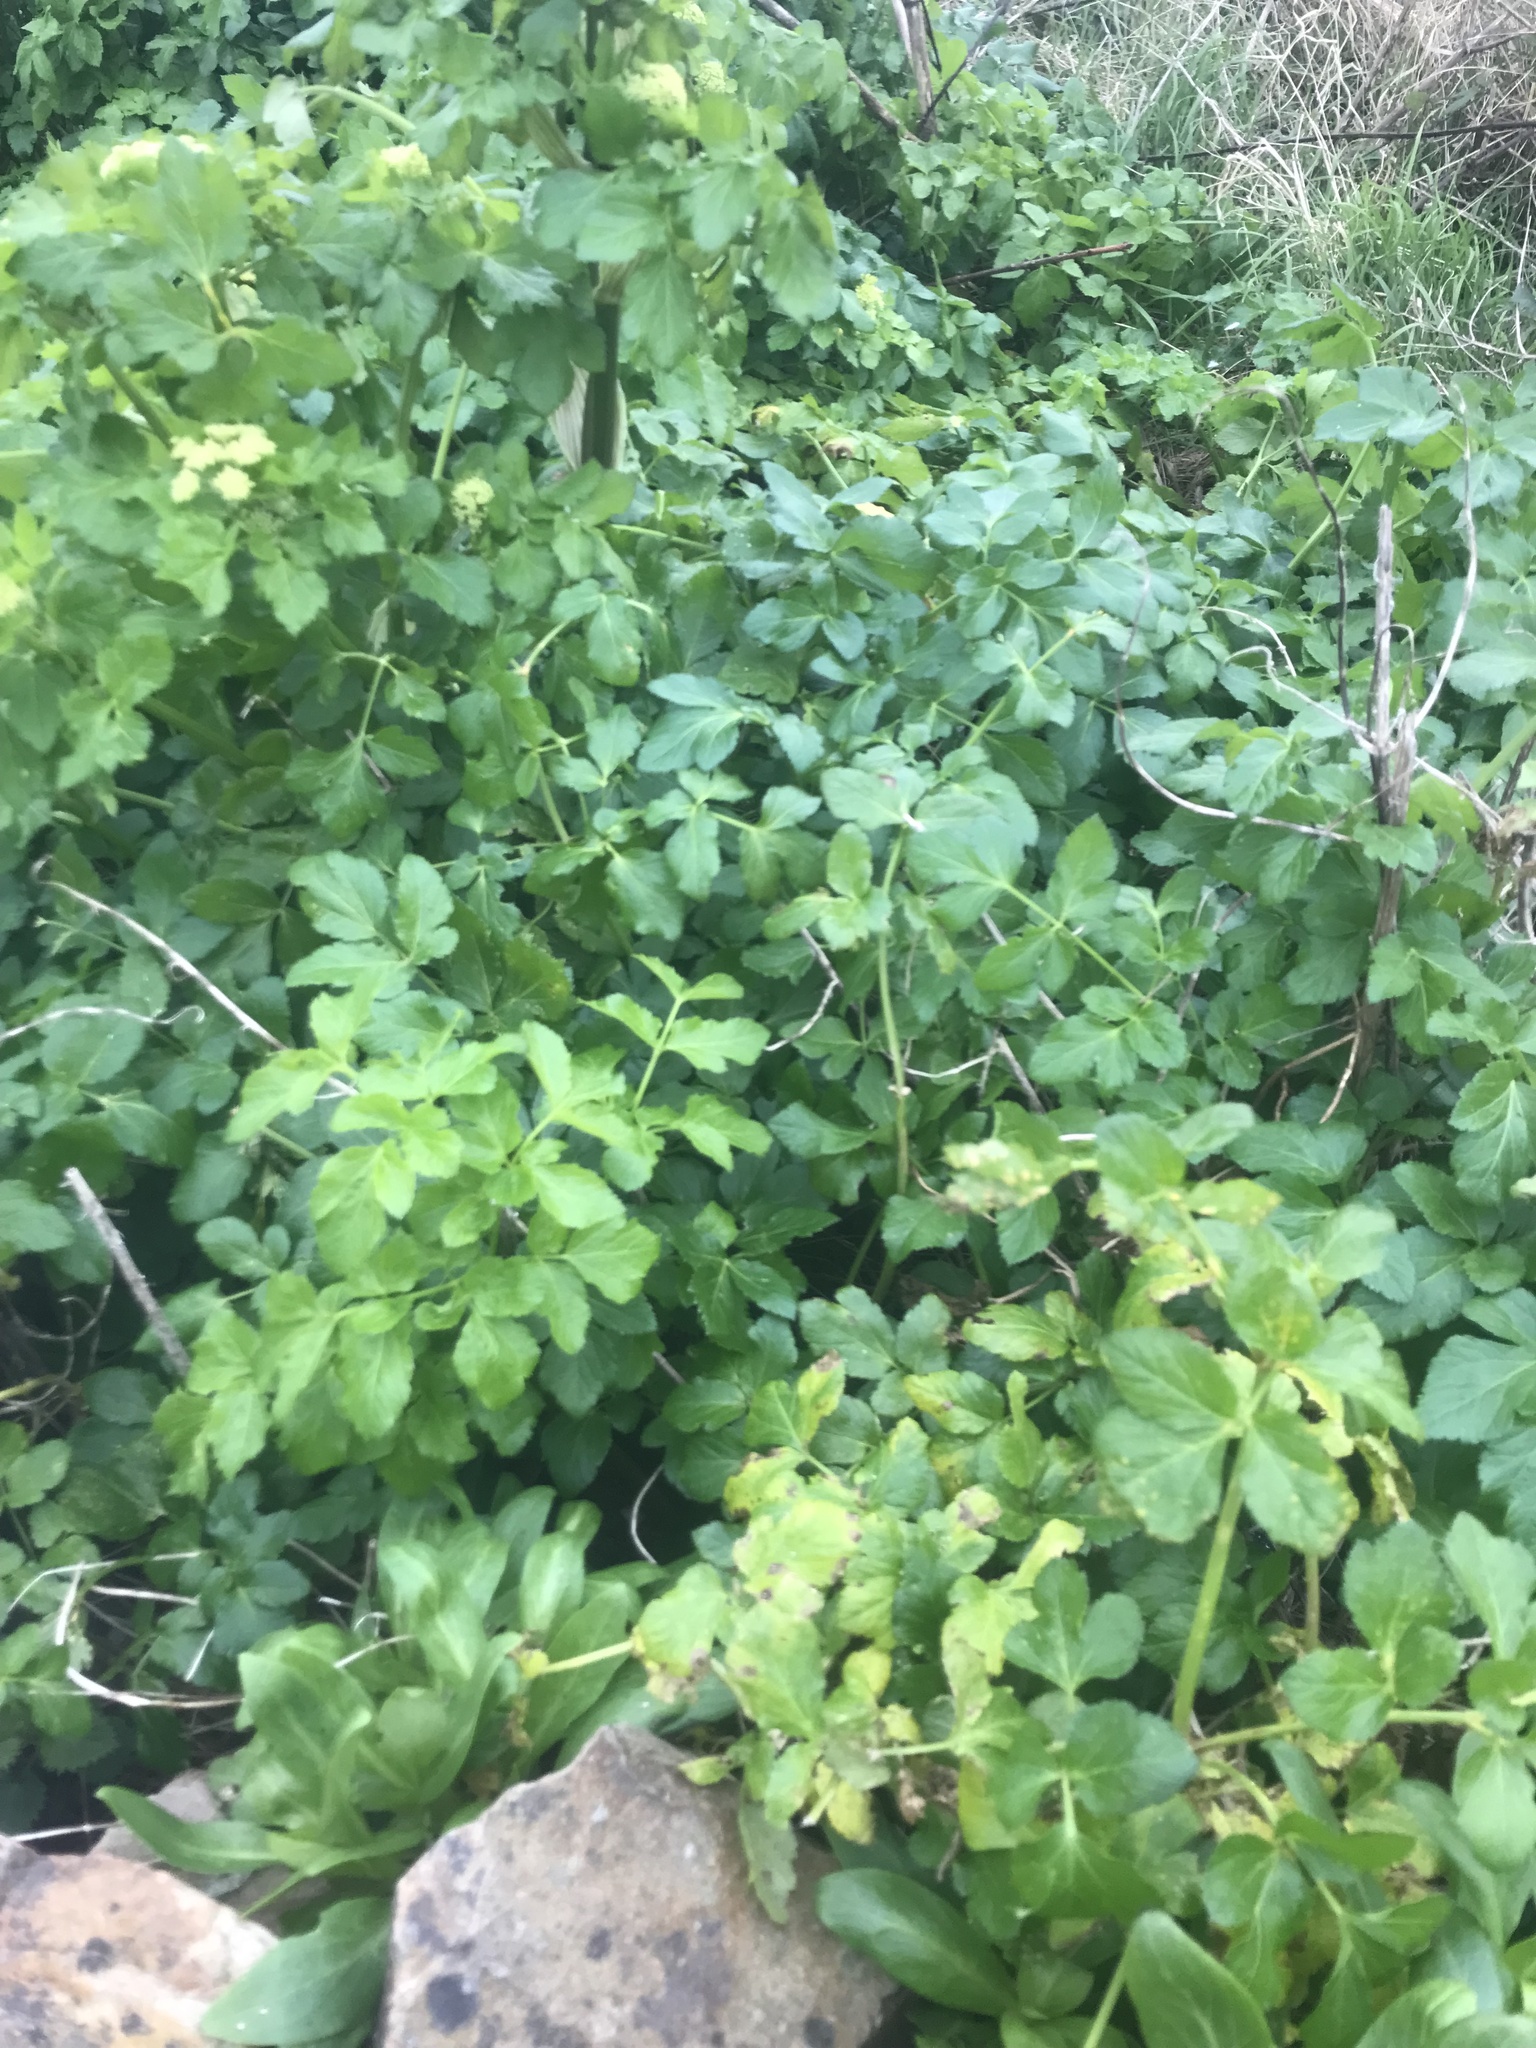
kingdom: Plantae
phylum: Tracheophyta
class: Magnoliopsida
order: Apiales
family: Apiaceae
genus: Smyrnium
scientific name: Smyrnium olusatrum
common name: Alexanders
